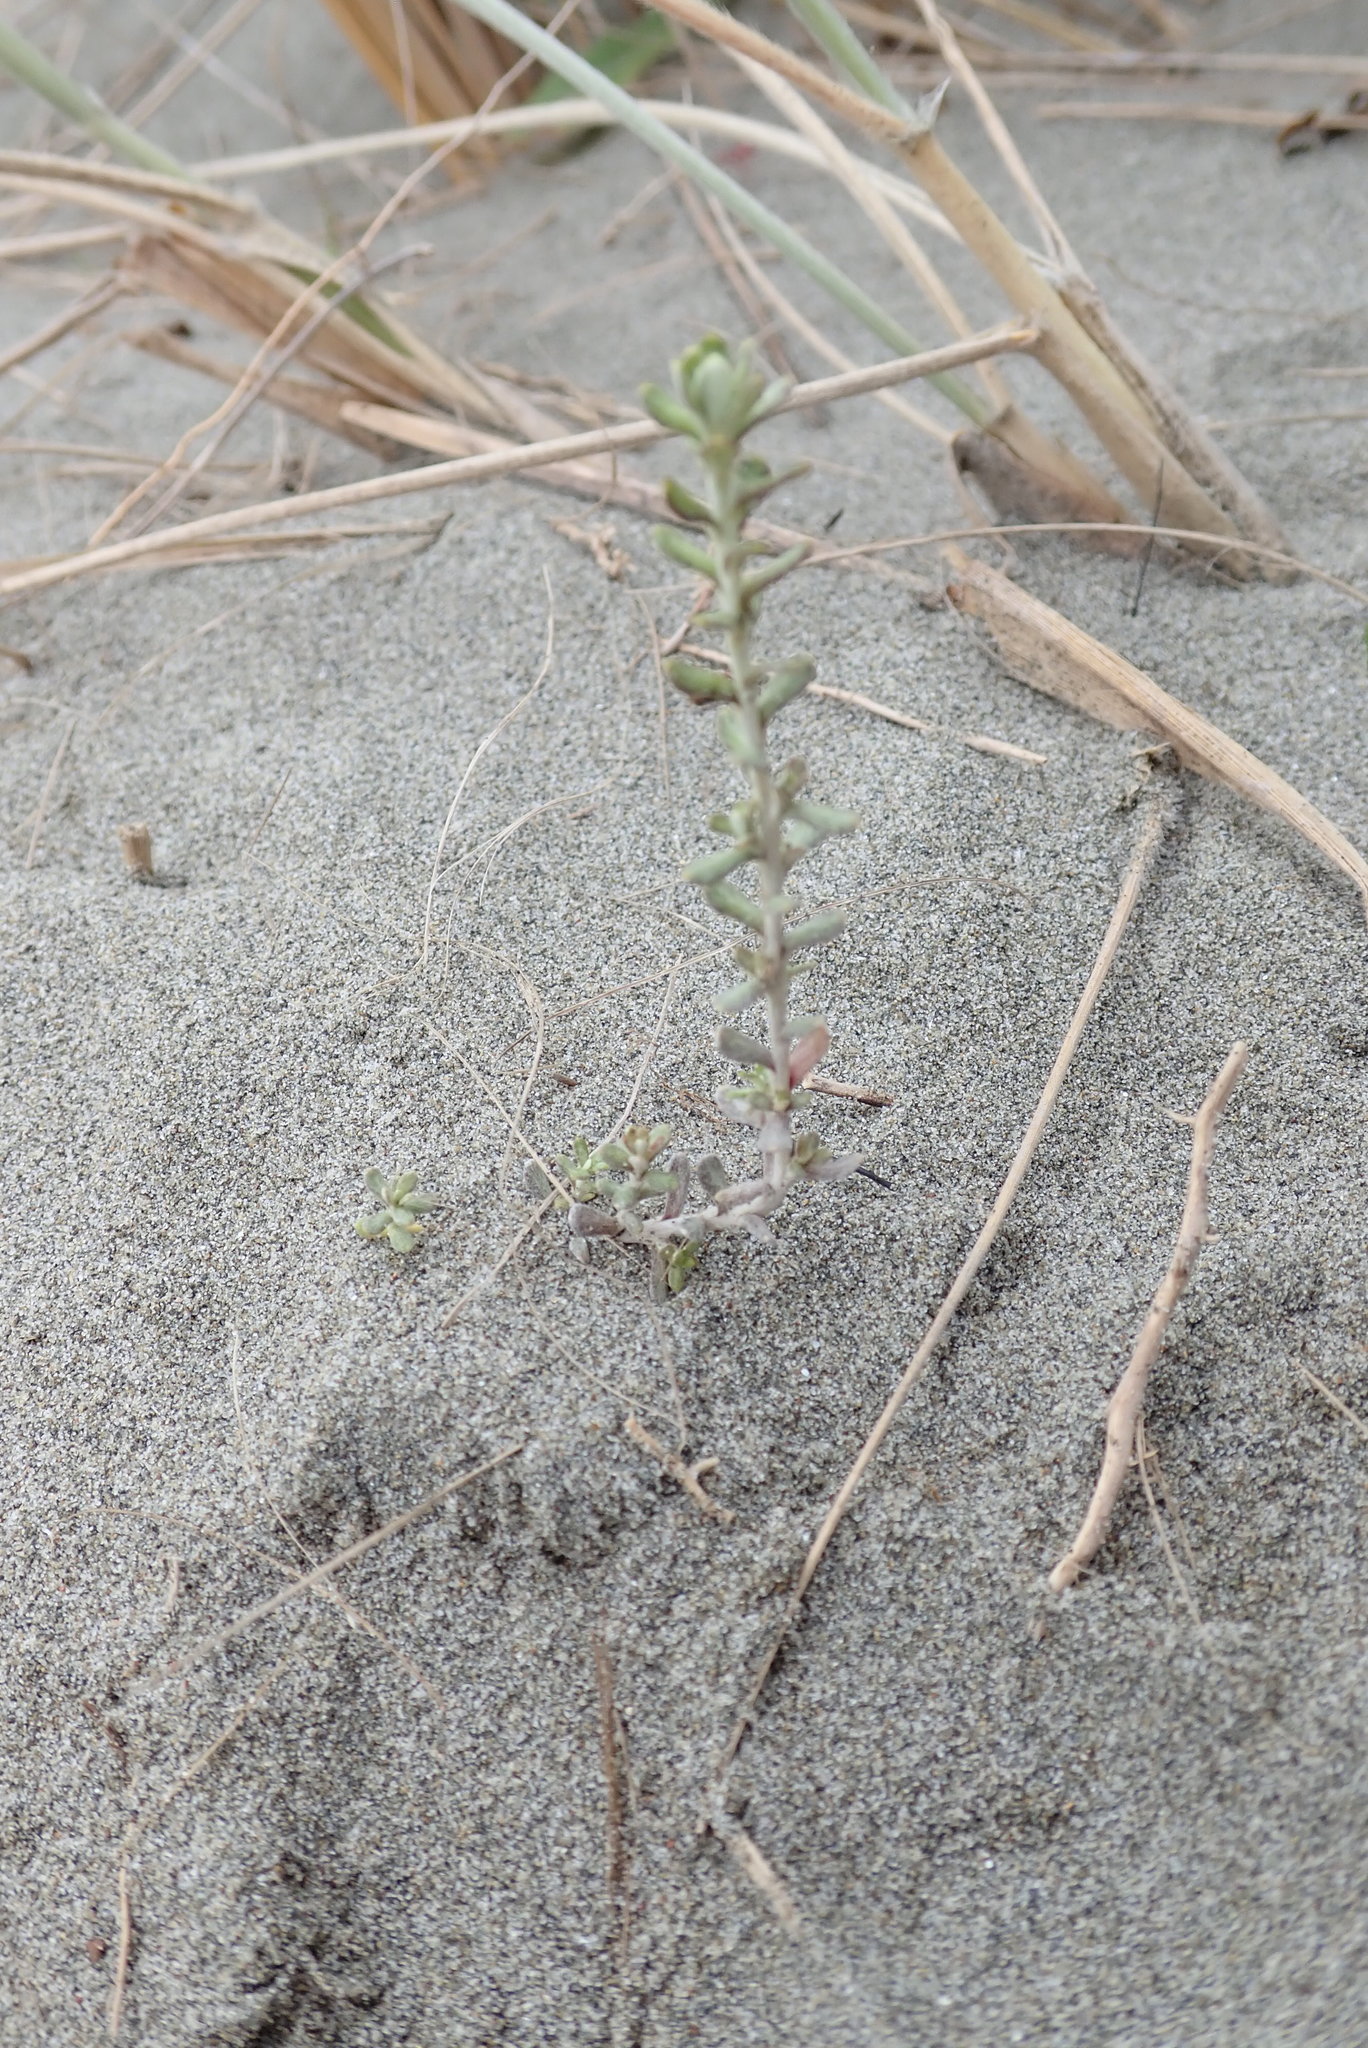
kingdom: Plantae
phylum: Tracheophyta
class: Magnoliopsida
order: Asterales
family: Asteraceae
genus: Ozothamnus
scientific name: Ozothamnus leptophyllus
